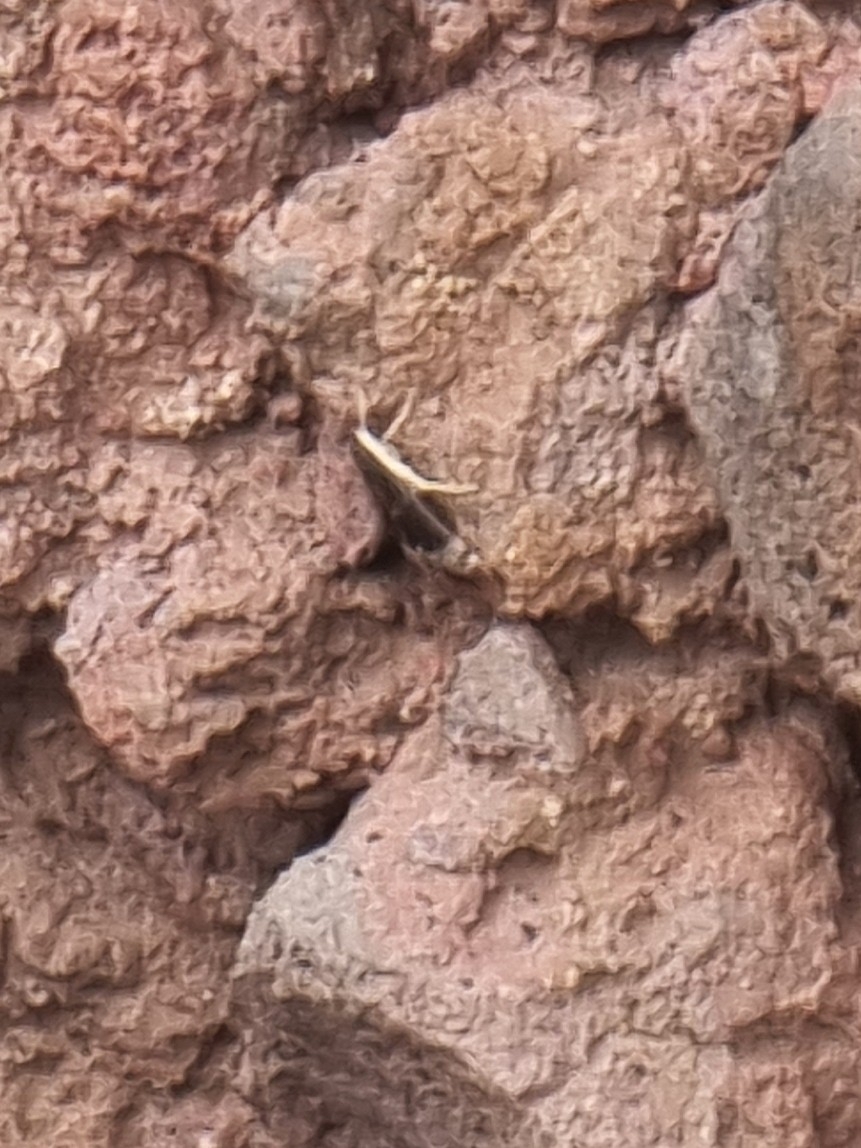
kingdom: Animalia
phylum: Arthropoda
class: Insecta
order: Lepidoptera
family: Crambidae
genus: Uresiphita
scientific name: Uresiphita gilvata
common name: Yellow-underwing pearl
